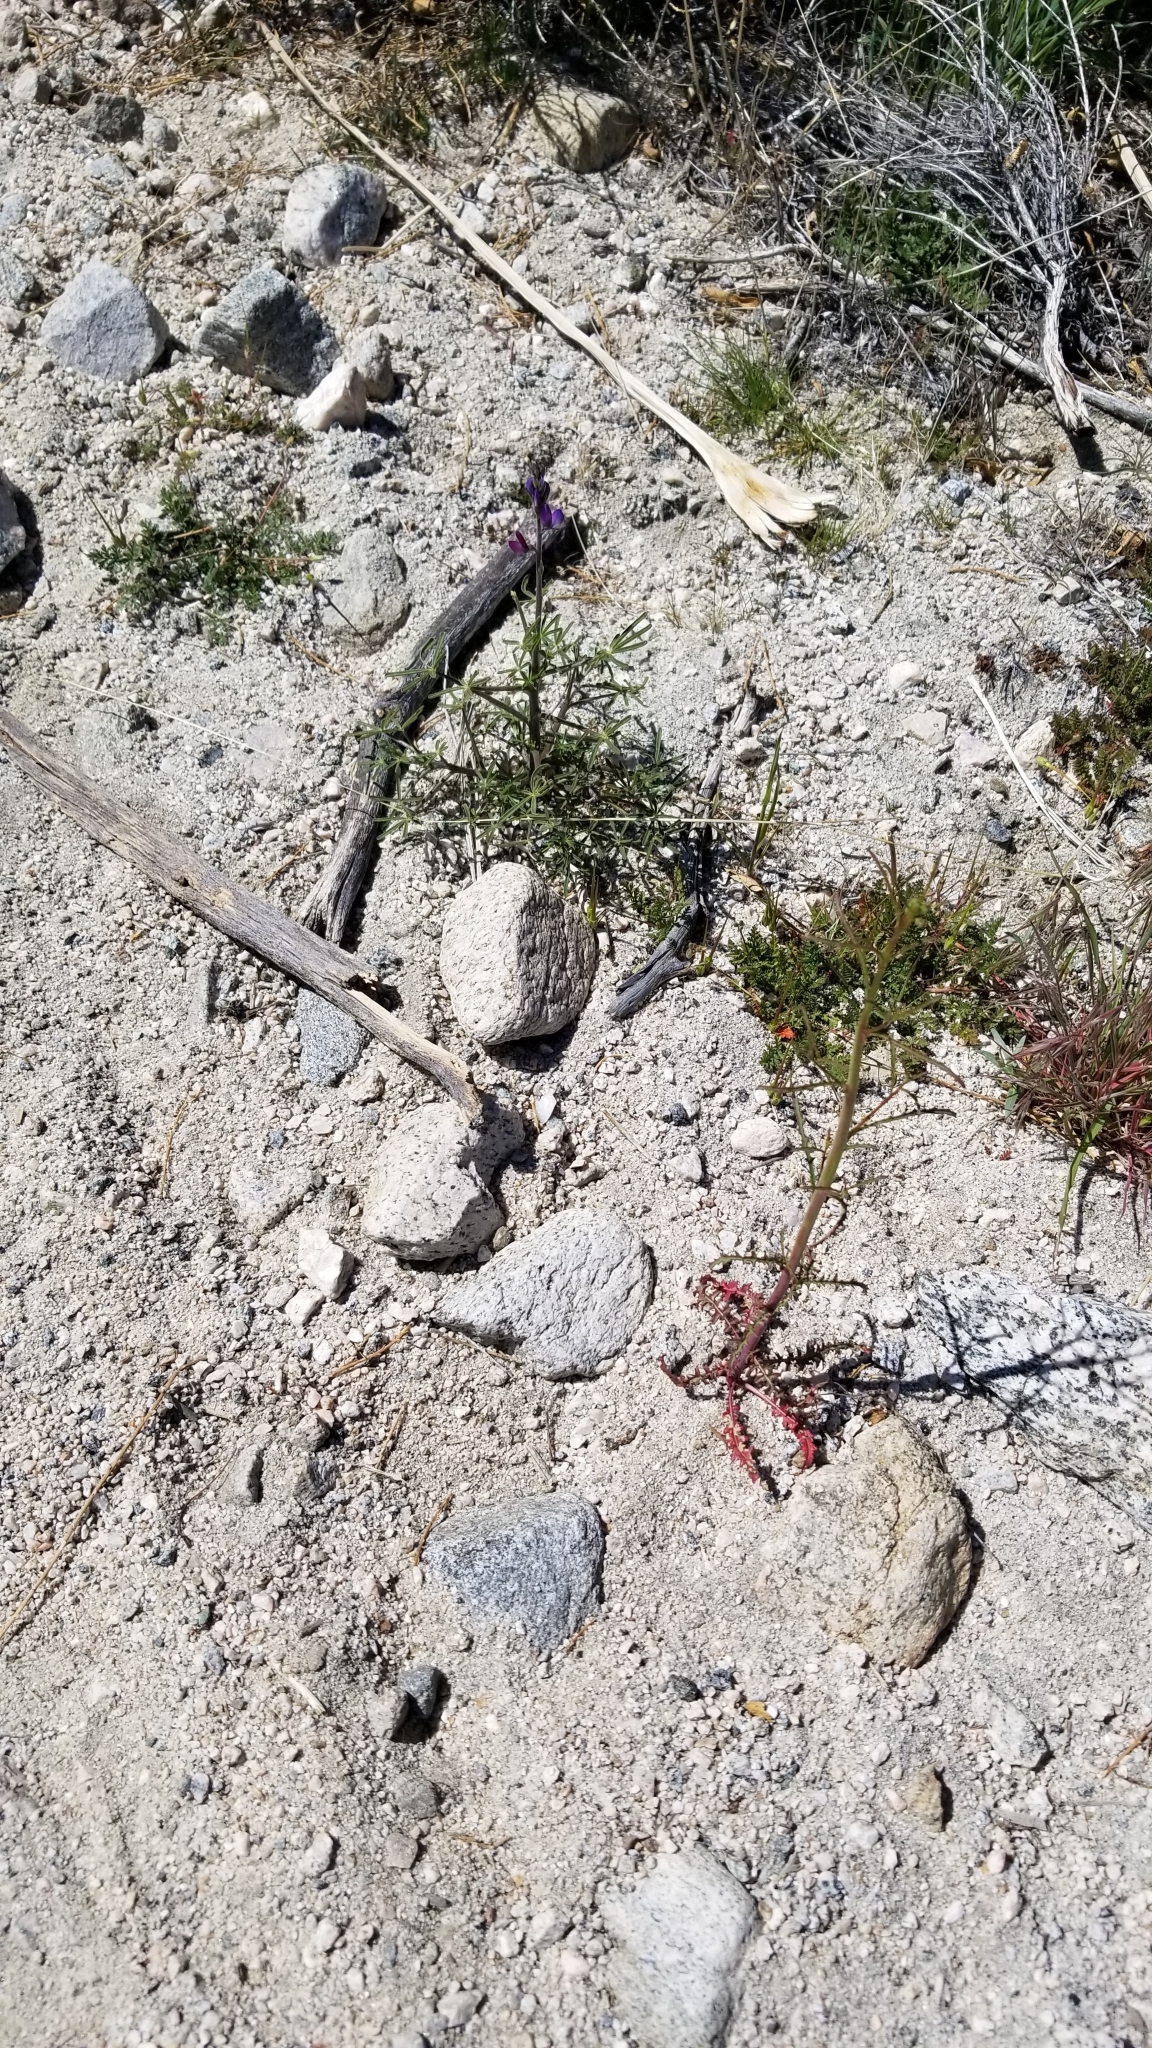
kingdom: Plantae
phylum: Tracheophyta
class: Magnoliopsida
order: Fabales
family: Fabaceae
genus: Lupinus
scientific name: Lupinus truncatus
